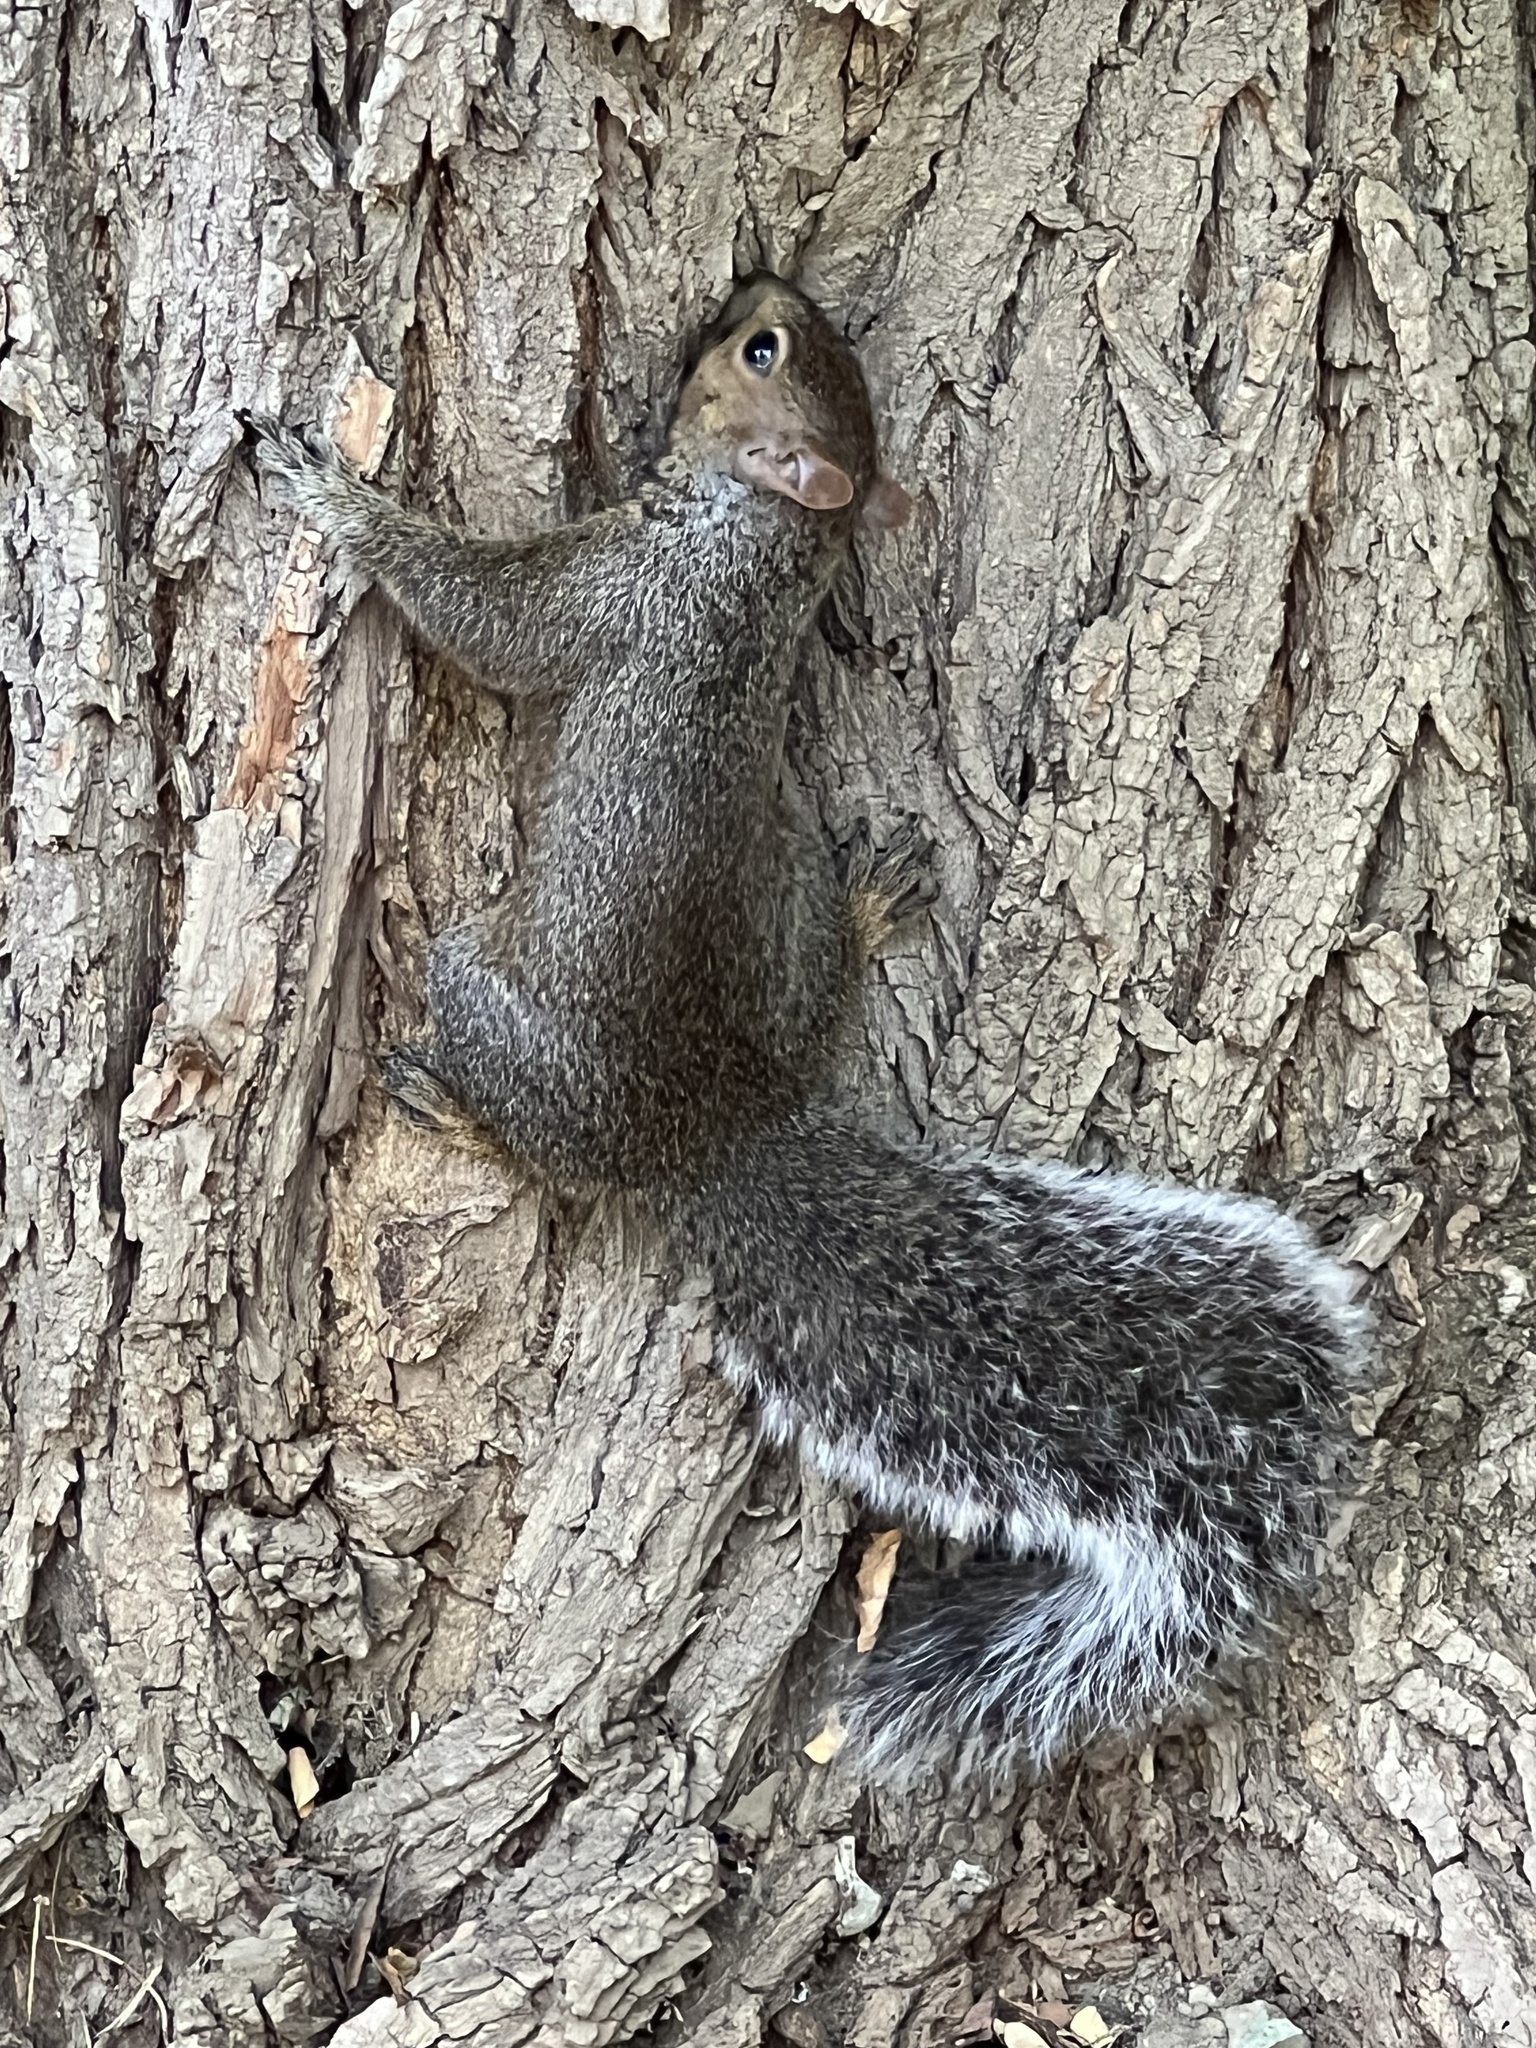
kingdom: Animalia
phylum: Chordata
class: Mammalia
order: Rodentia
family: Sciuridae
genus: Sciurus
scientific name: Sciurus carolinensis
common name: Eastern gray squirrel
